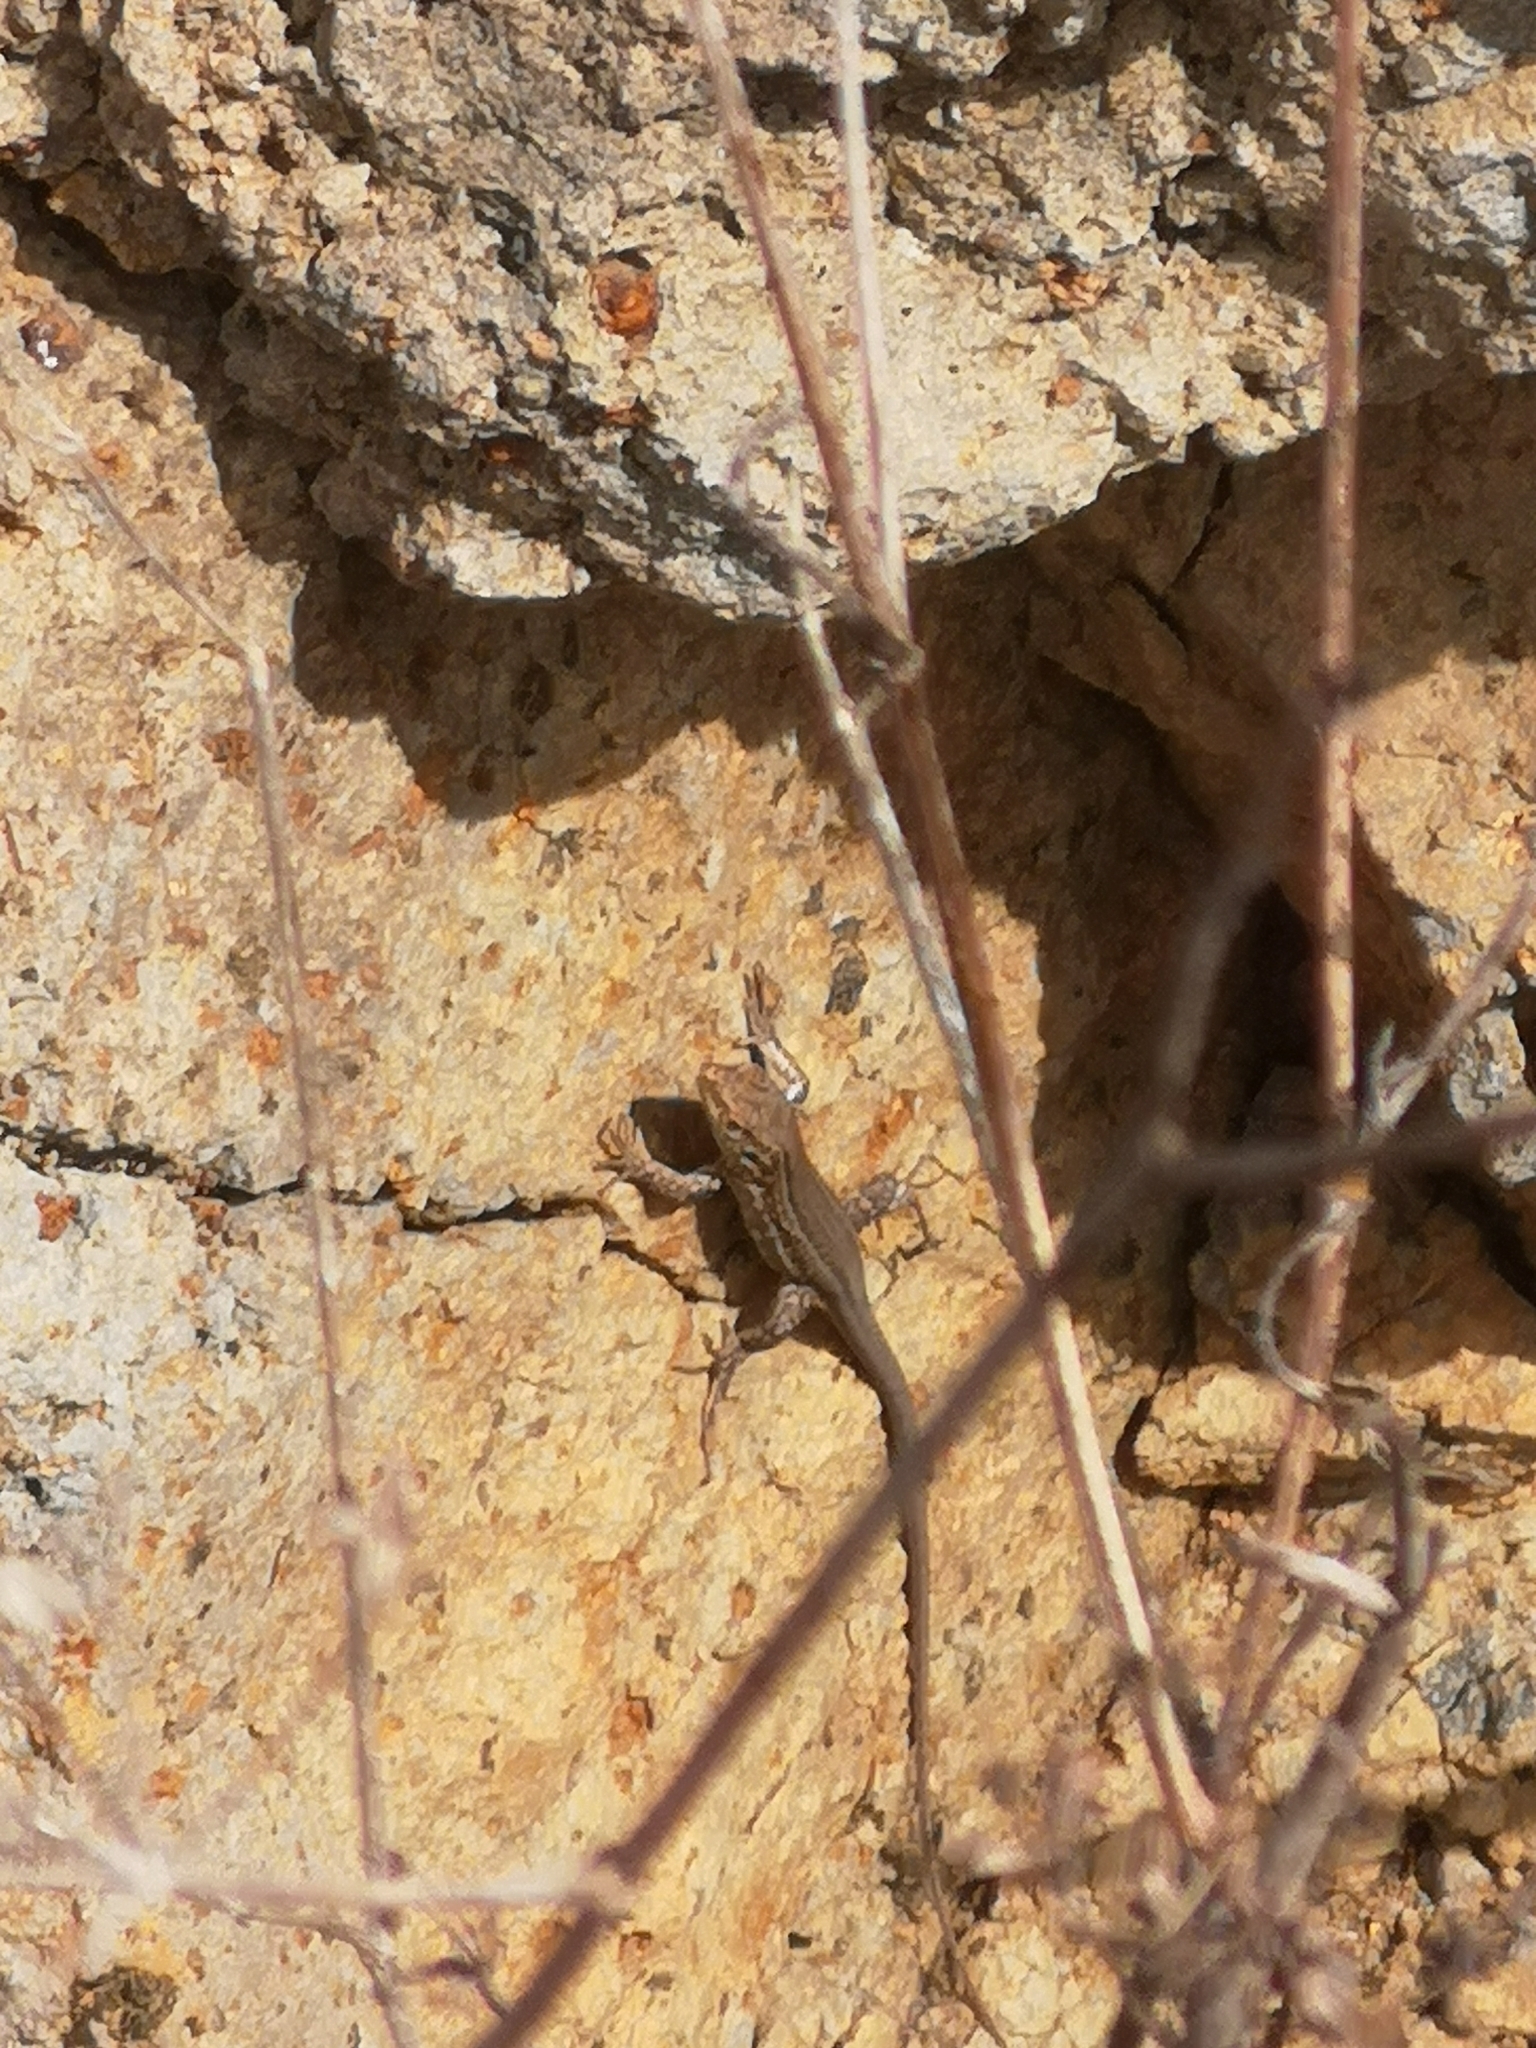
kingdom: Animalia
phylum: Chordata
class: Squamata
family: Lacertidae
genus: Gallotia
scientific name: Gallotia galloti
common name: Gallot's lizard
